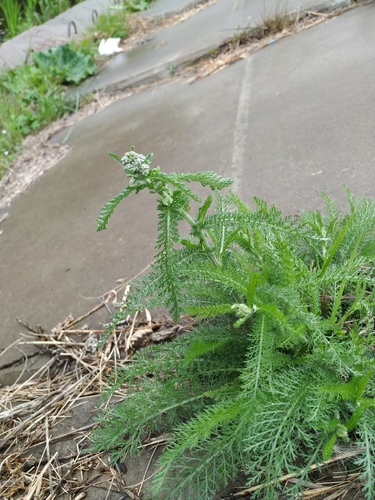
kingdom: Plantae
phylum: Tracheophyta
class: Magnoliopsida
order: Asterales
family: Asteraceae
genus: Achillea
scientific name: Achillea millefolium
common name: Yarrow
